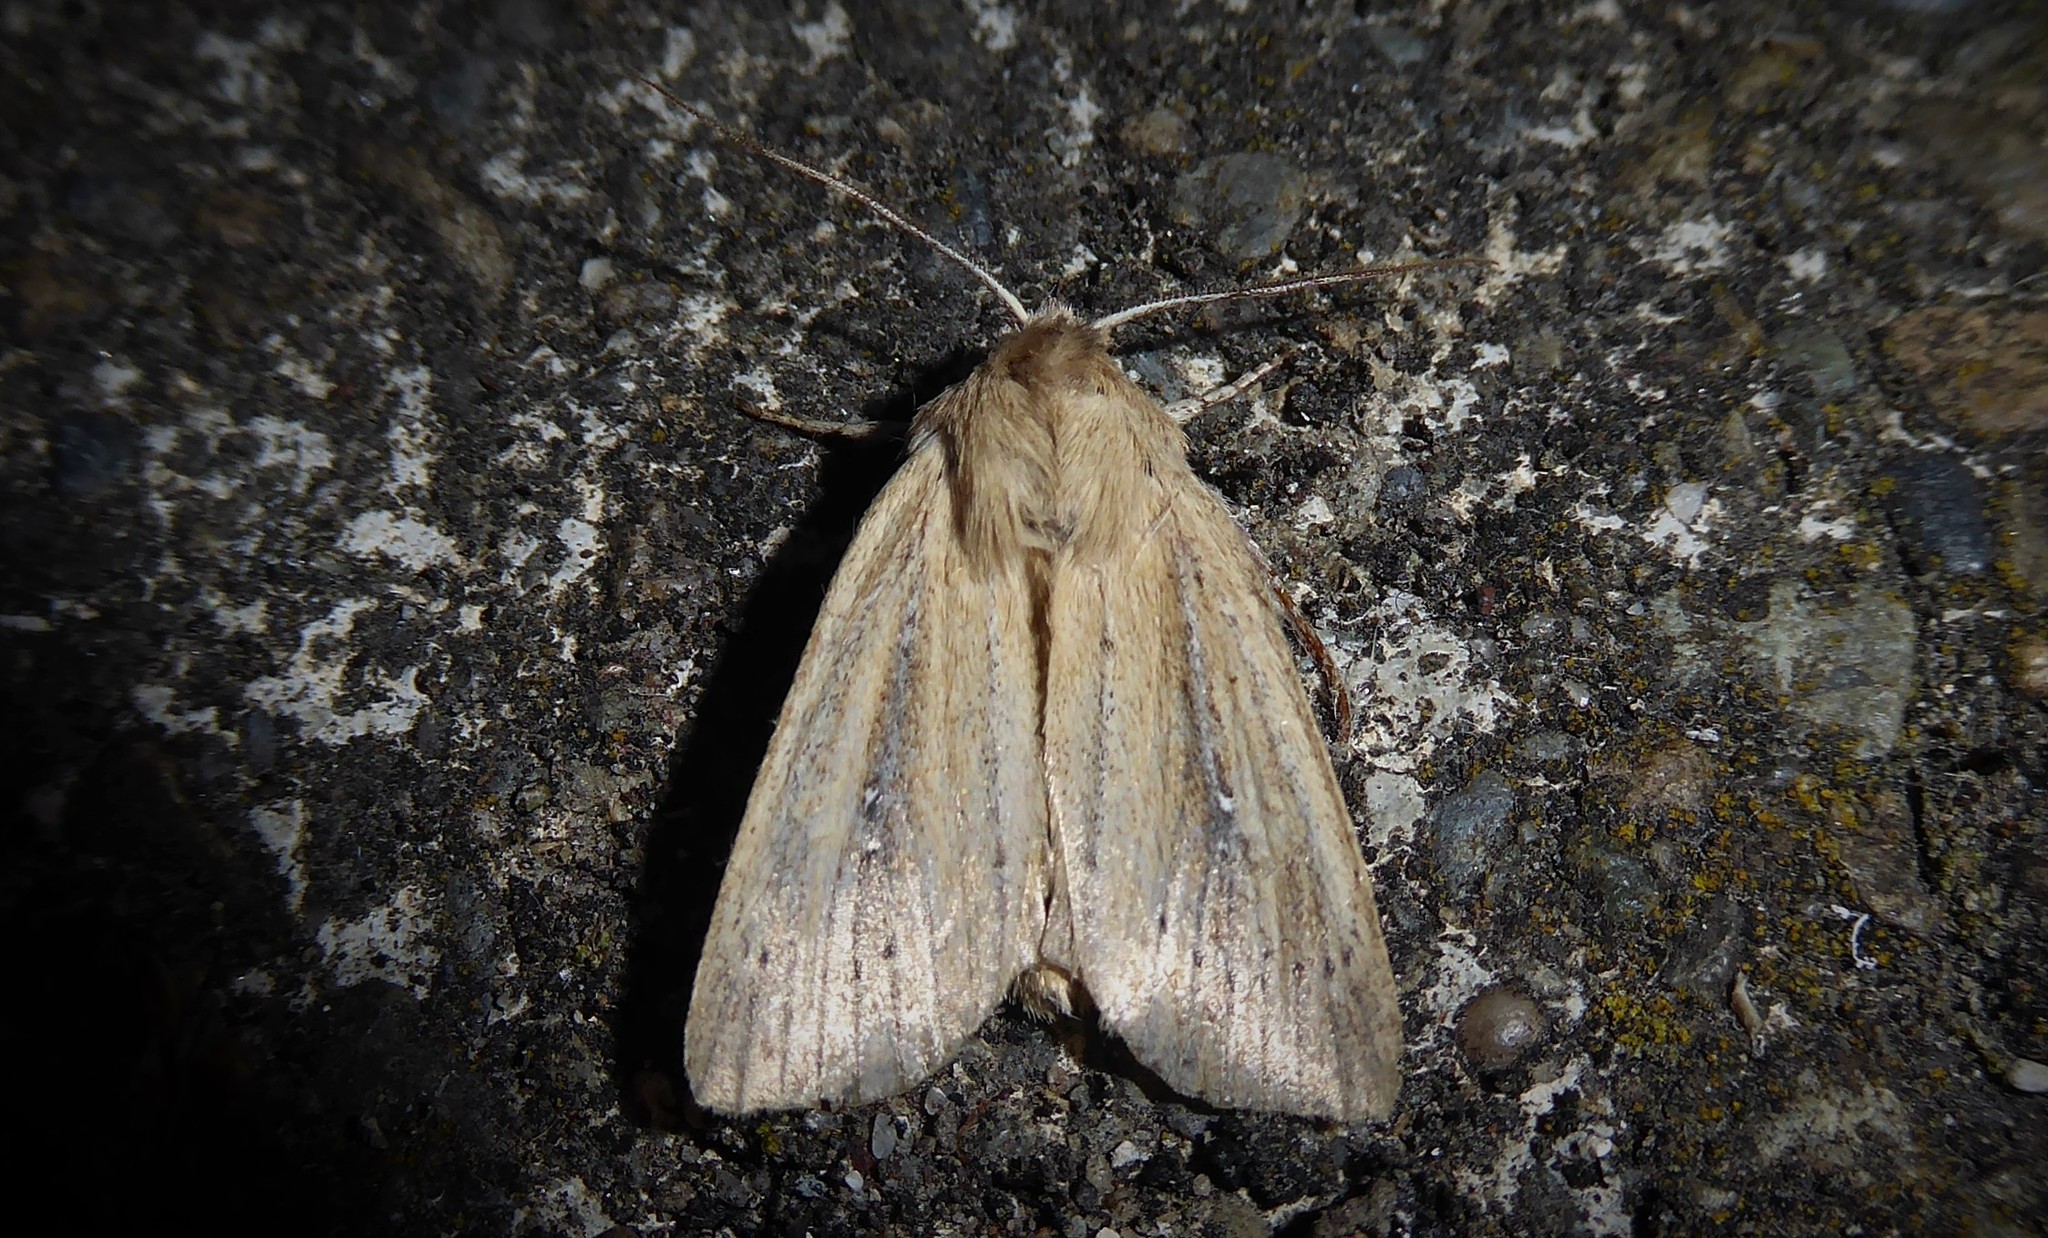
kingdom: Animalia
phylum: Arthropoda
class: Insecta
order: Lepidoptera
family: Noctuidae
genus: Ichneutica
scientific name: Ichneutica
